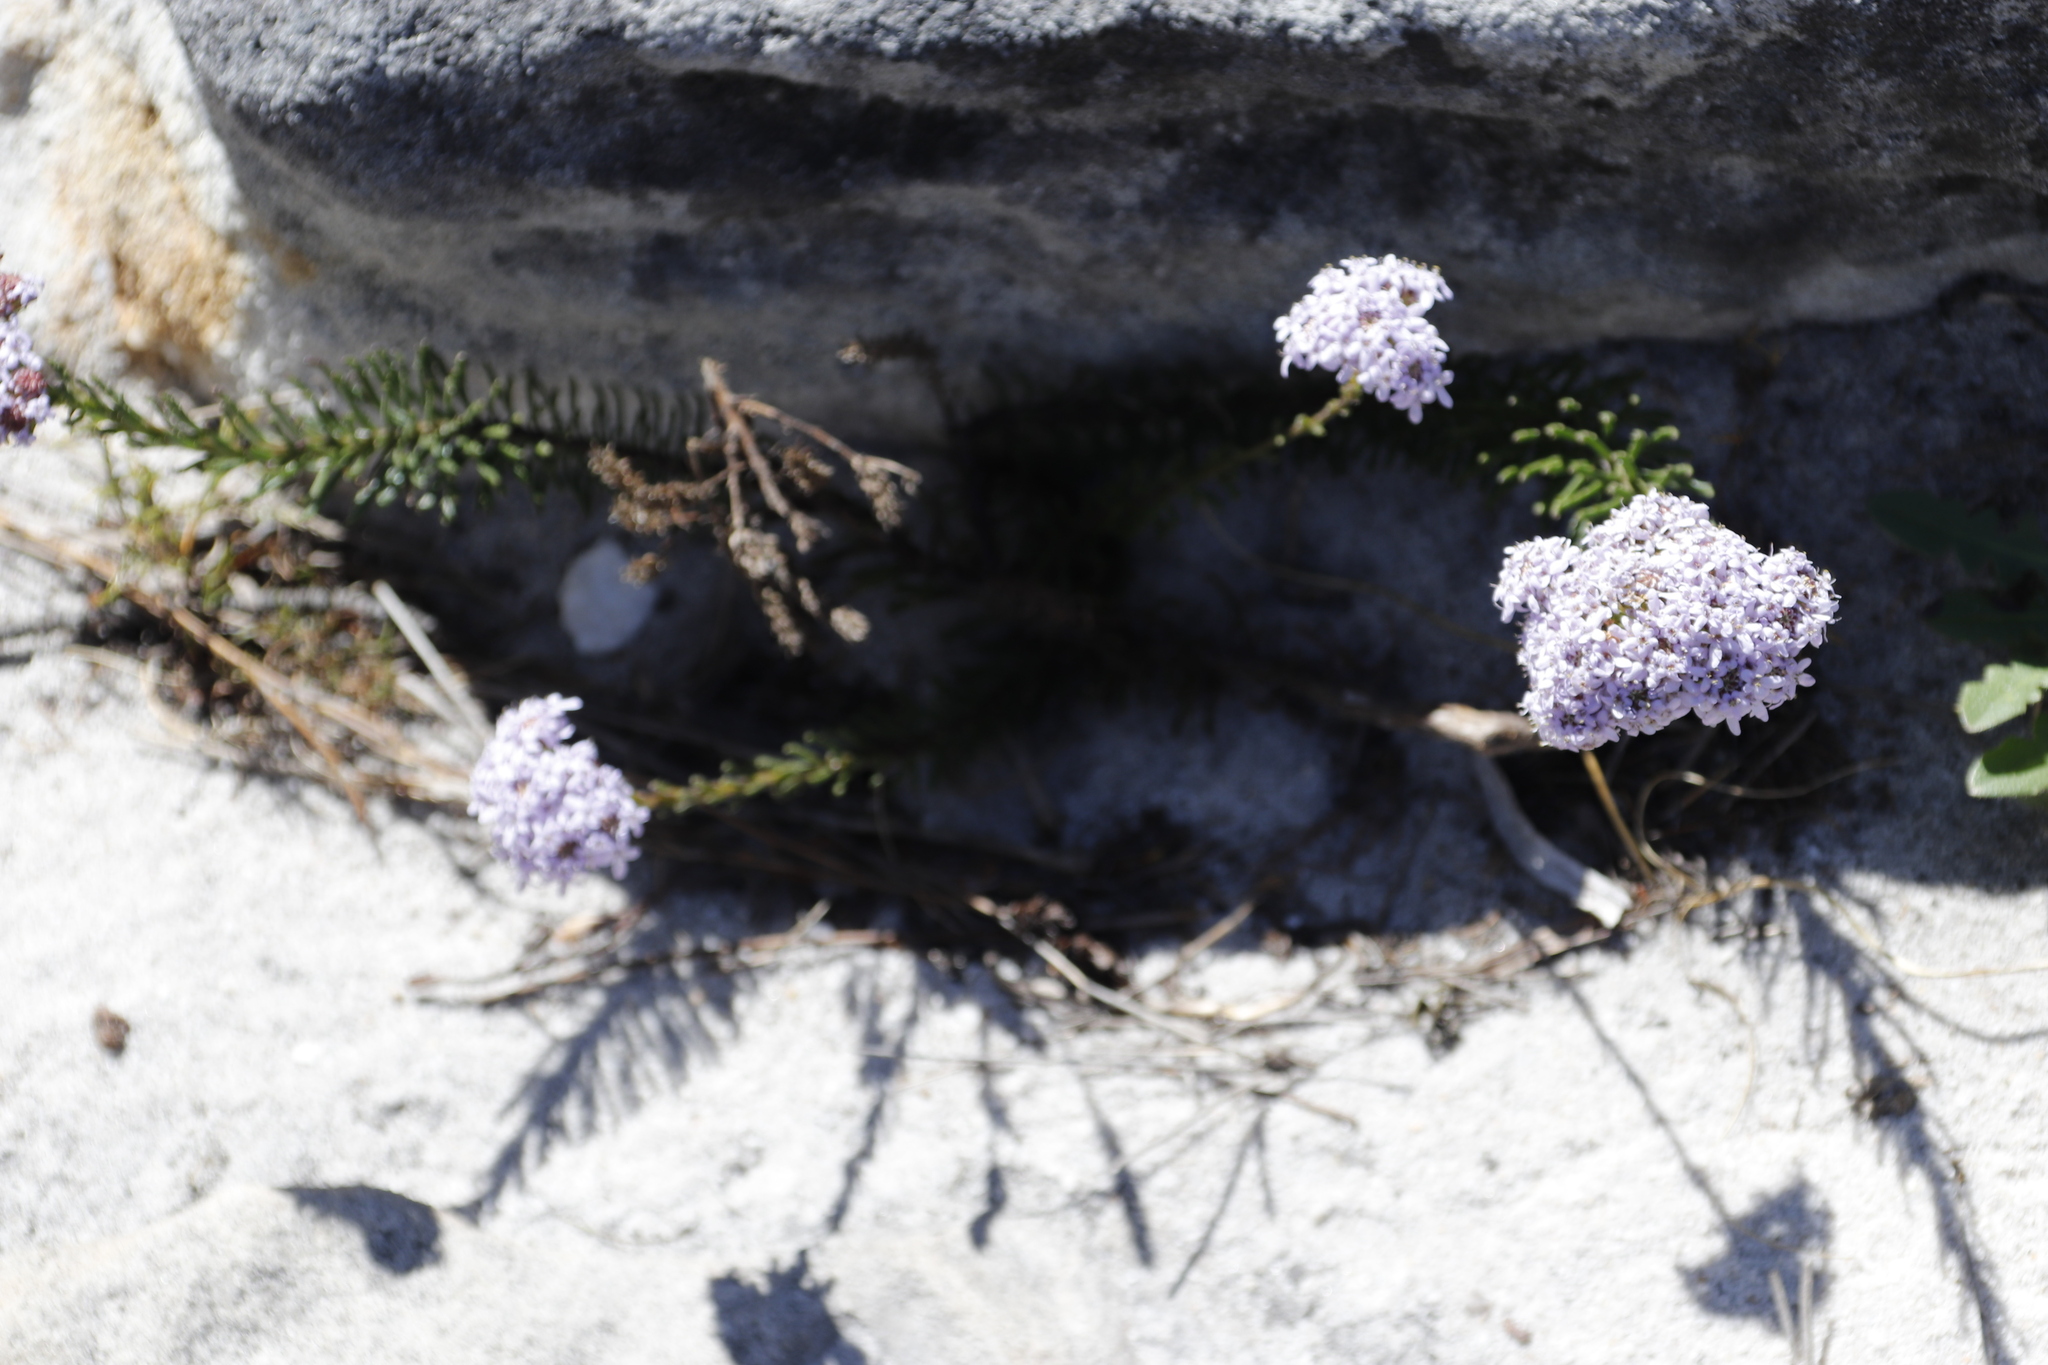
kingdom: Plantae
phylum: Tracheophyta
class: Magnoliopsida
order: Lamiales
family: Scrophulariaceae
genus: Pseudoselago
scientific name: Pseudoselago spuria
